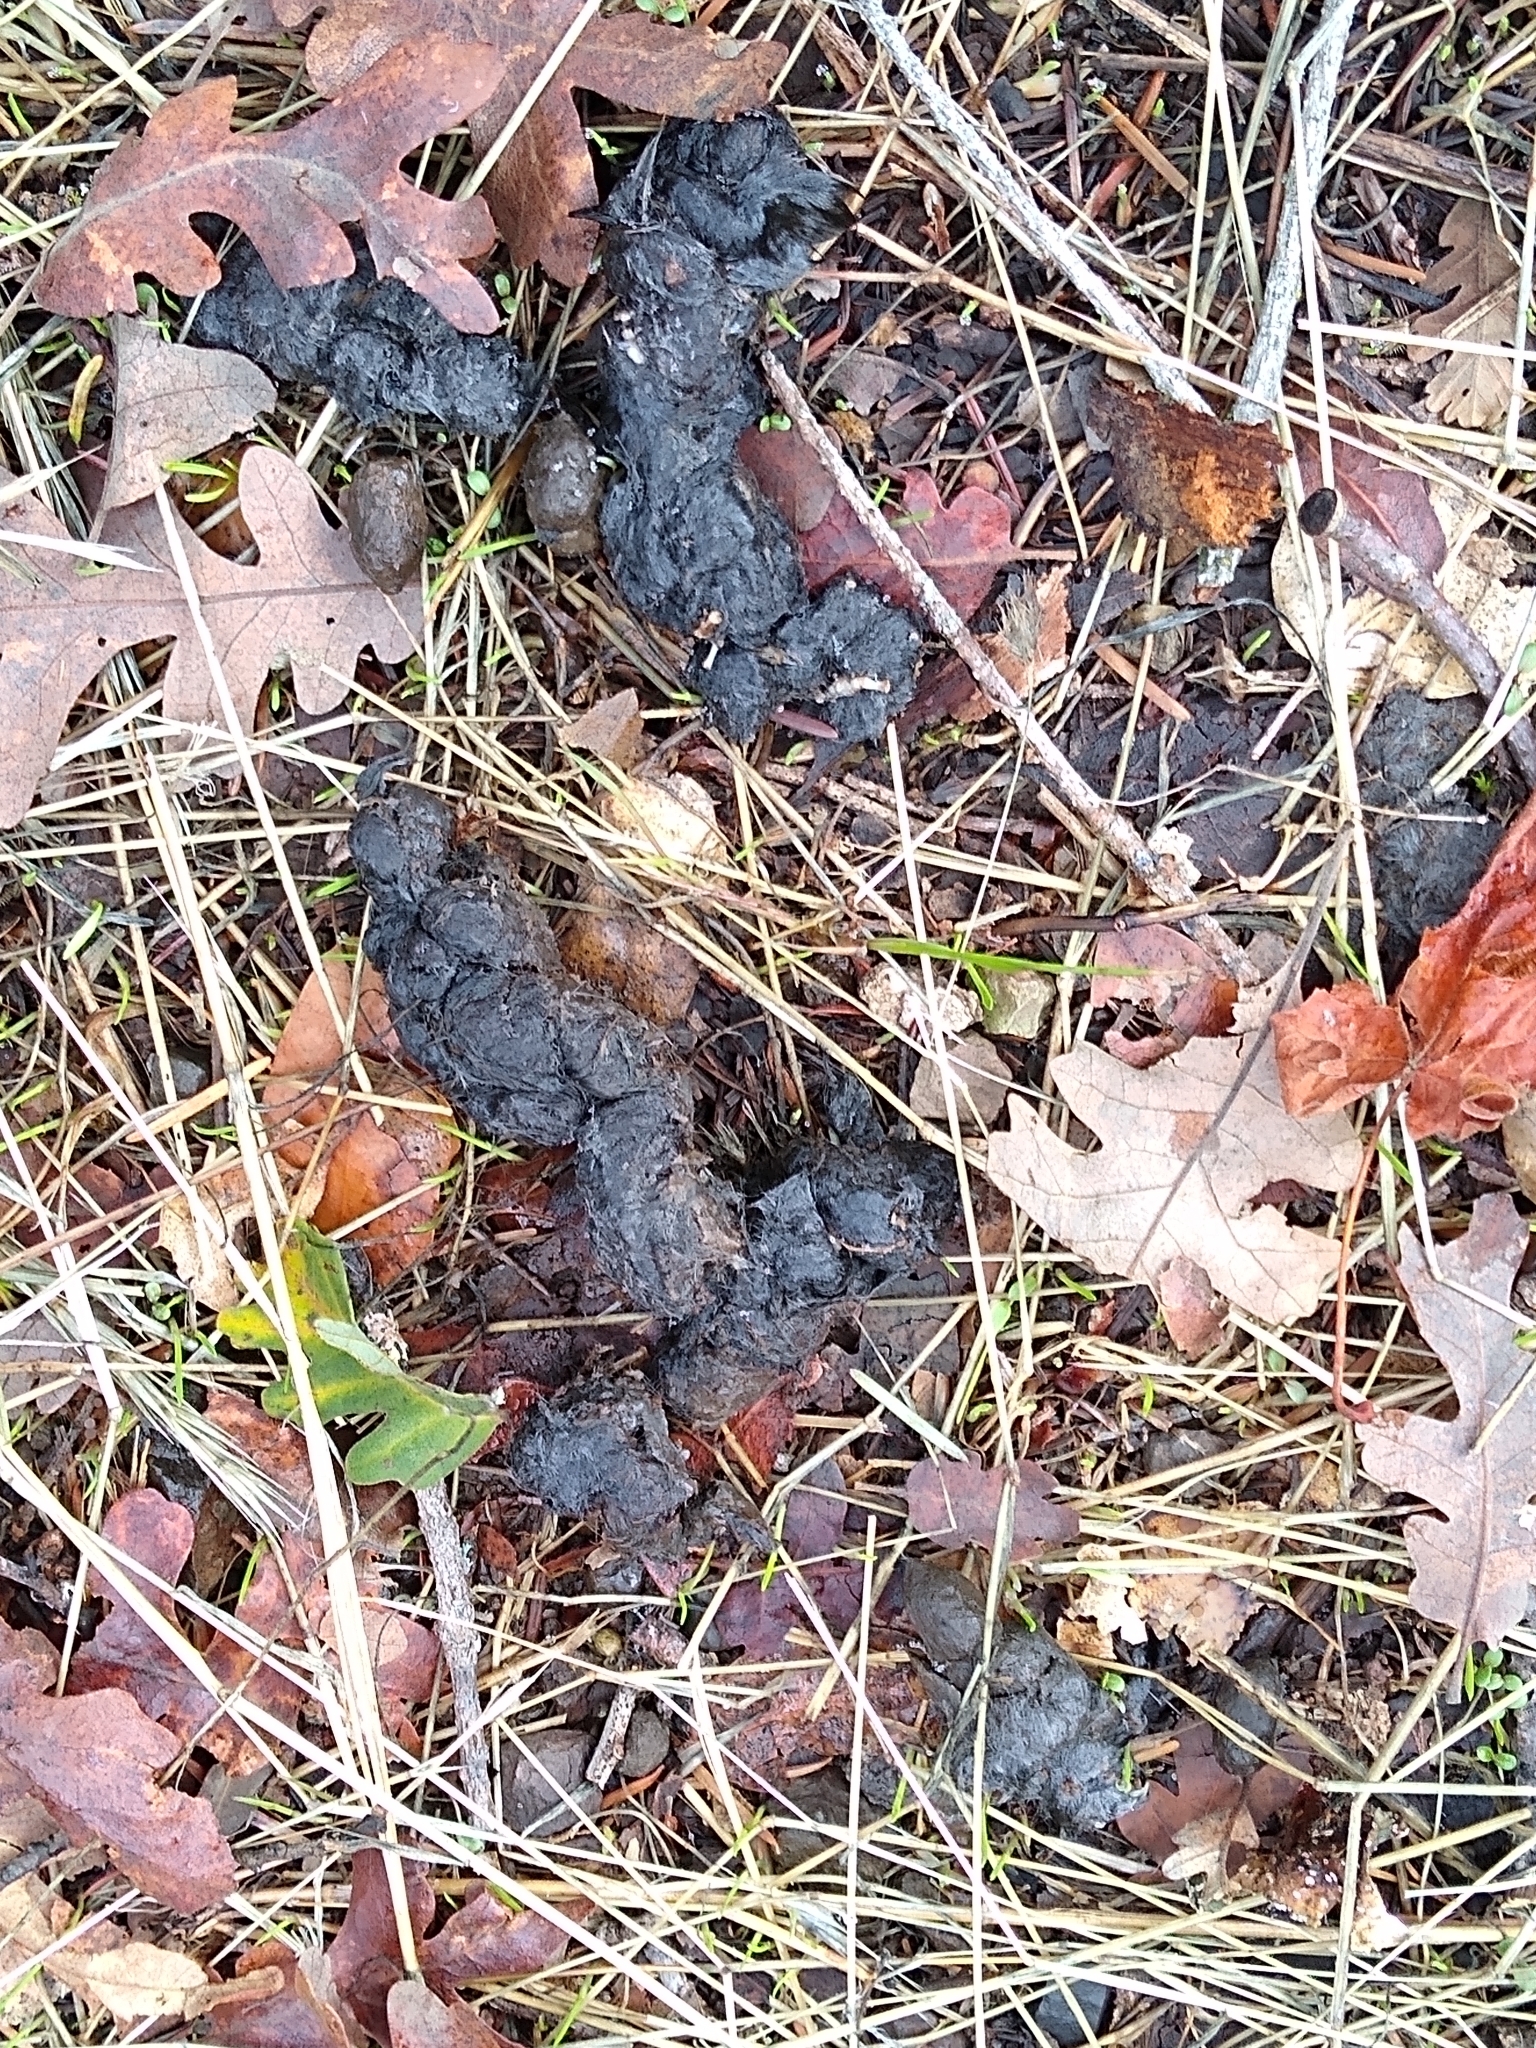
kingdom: Animalia
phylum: Chordata
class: Mammalia
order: Carnivora
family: Canidae
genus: Canis
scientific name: Canis latrans
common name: Coyote
